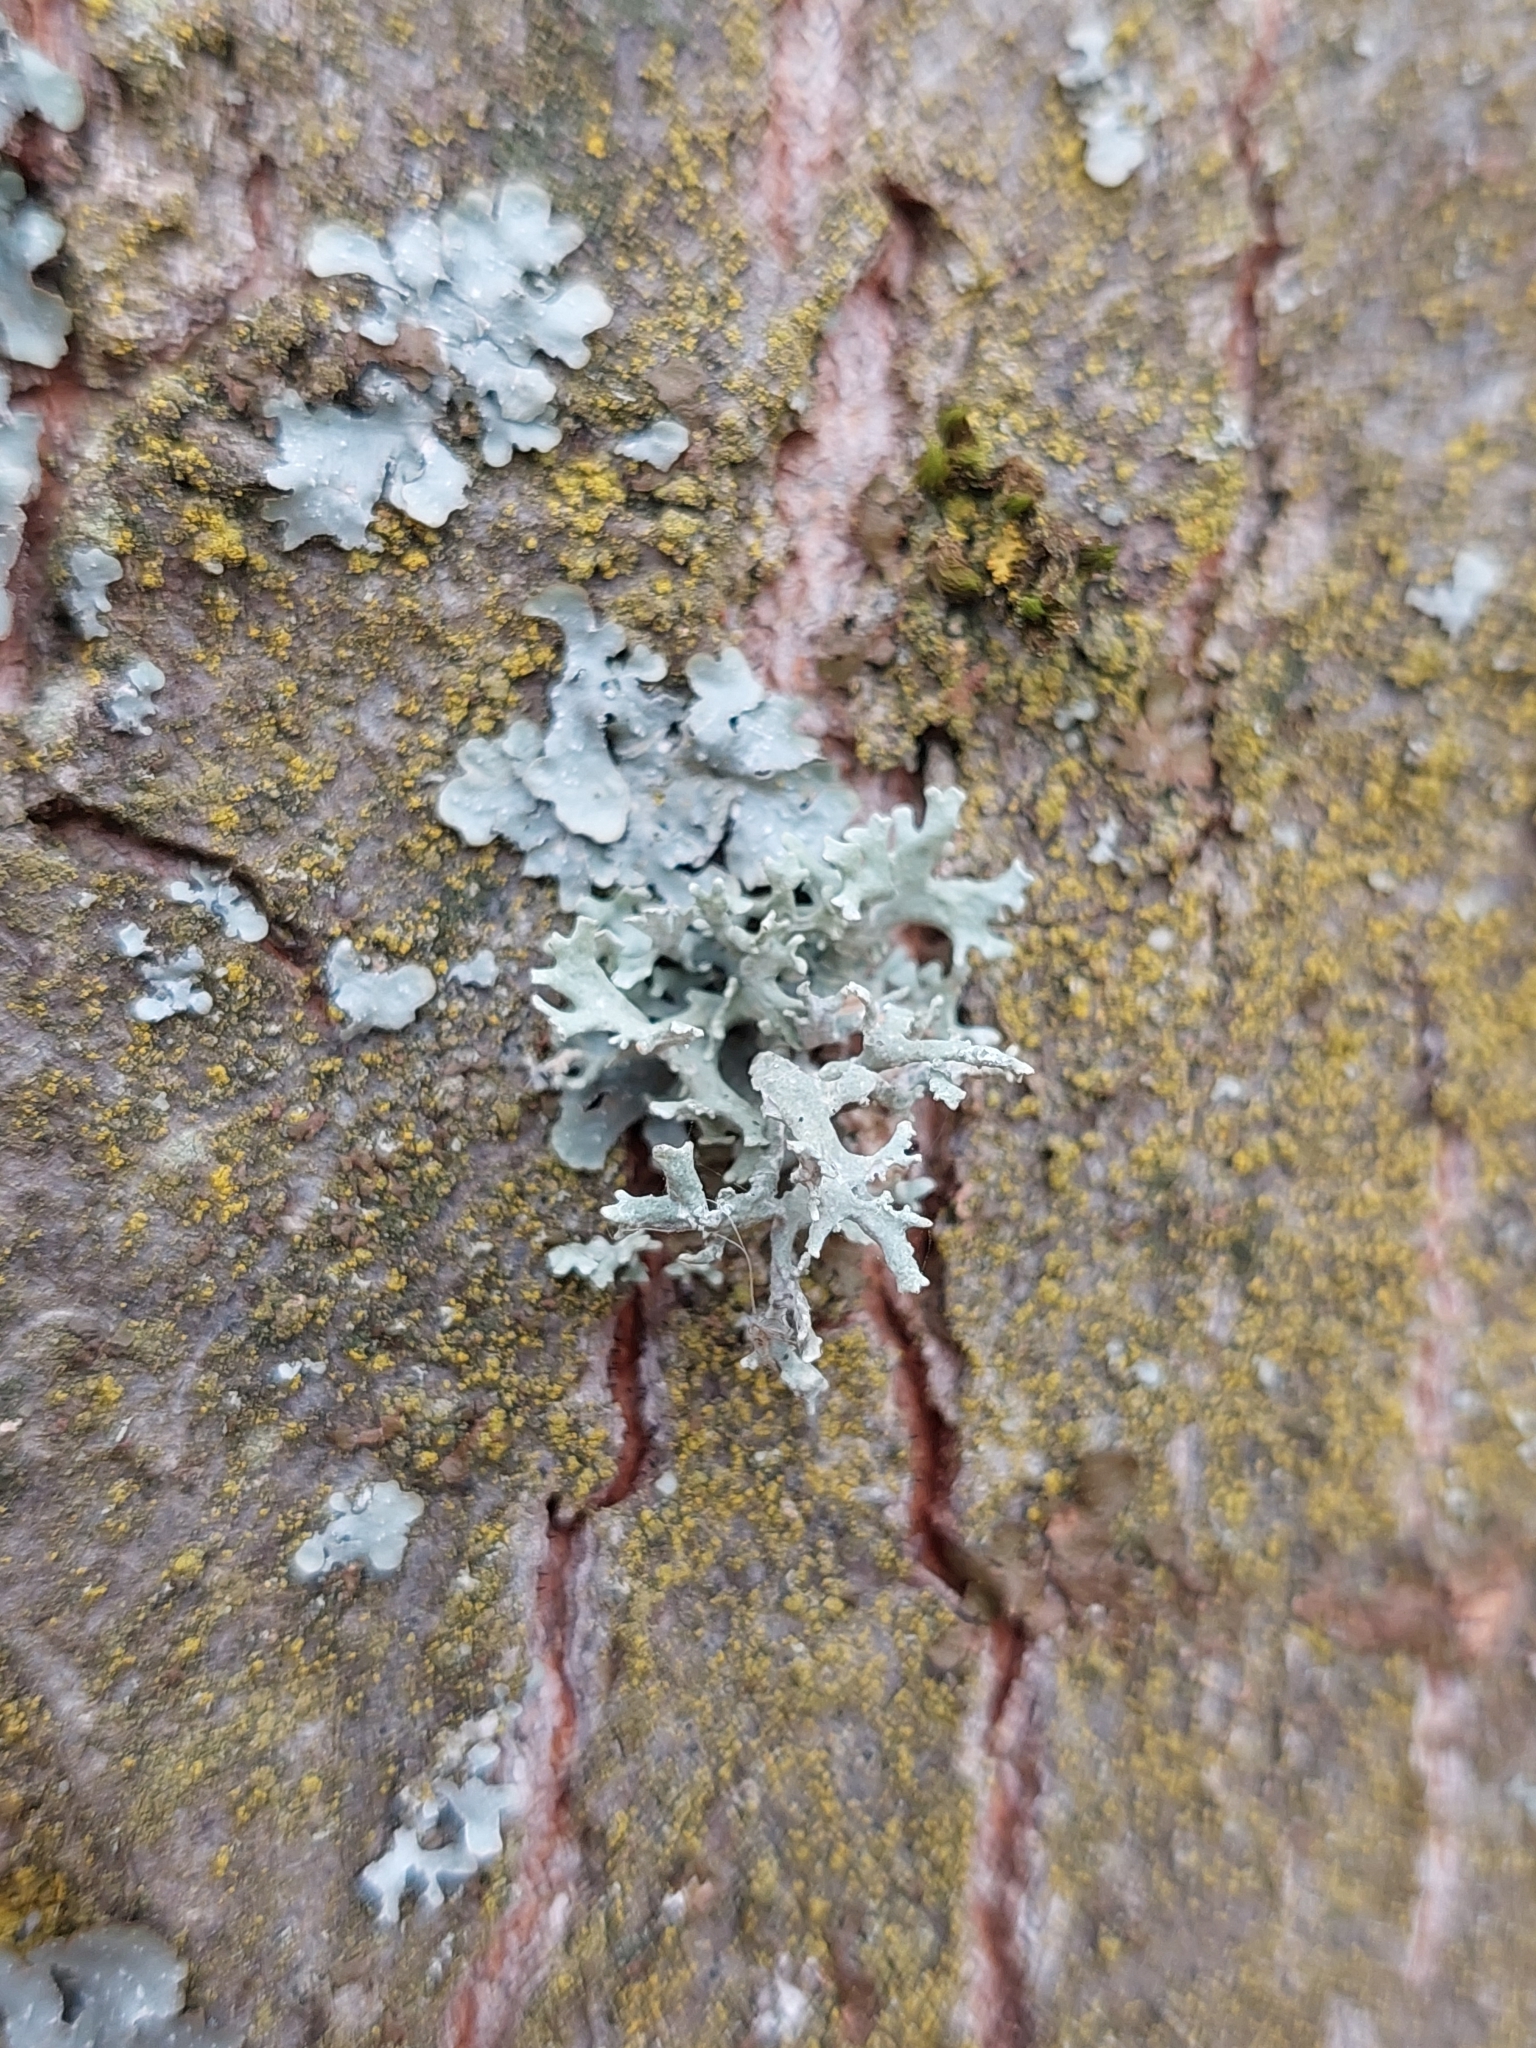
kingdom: Fungi
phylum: Ascomycota
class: Lecanoromycetes
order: Lecanorales
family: Parmeliaceae
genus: Evernia
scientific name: Evernia prunastri
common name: Oak moss
